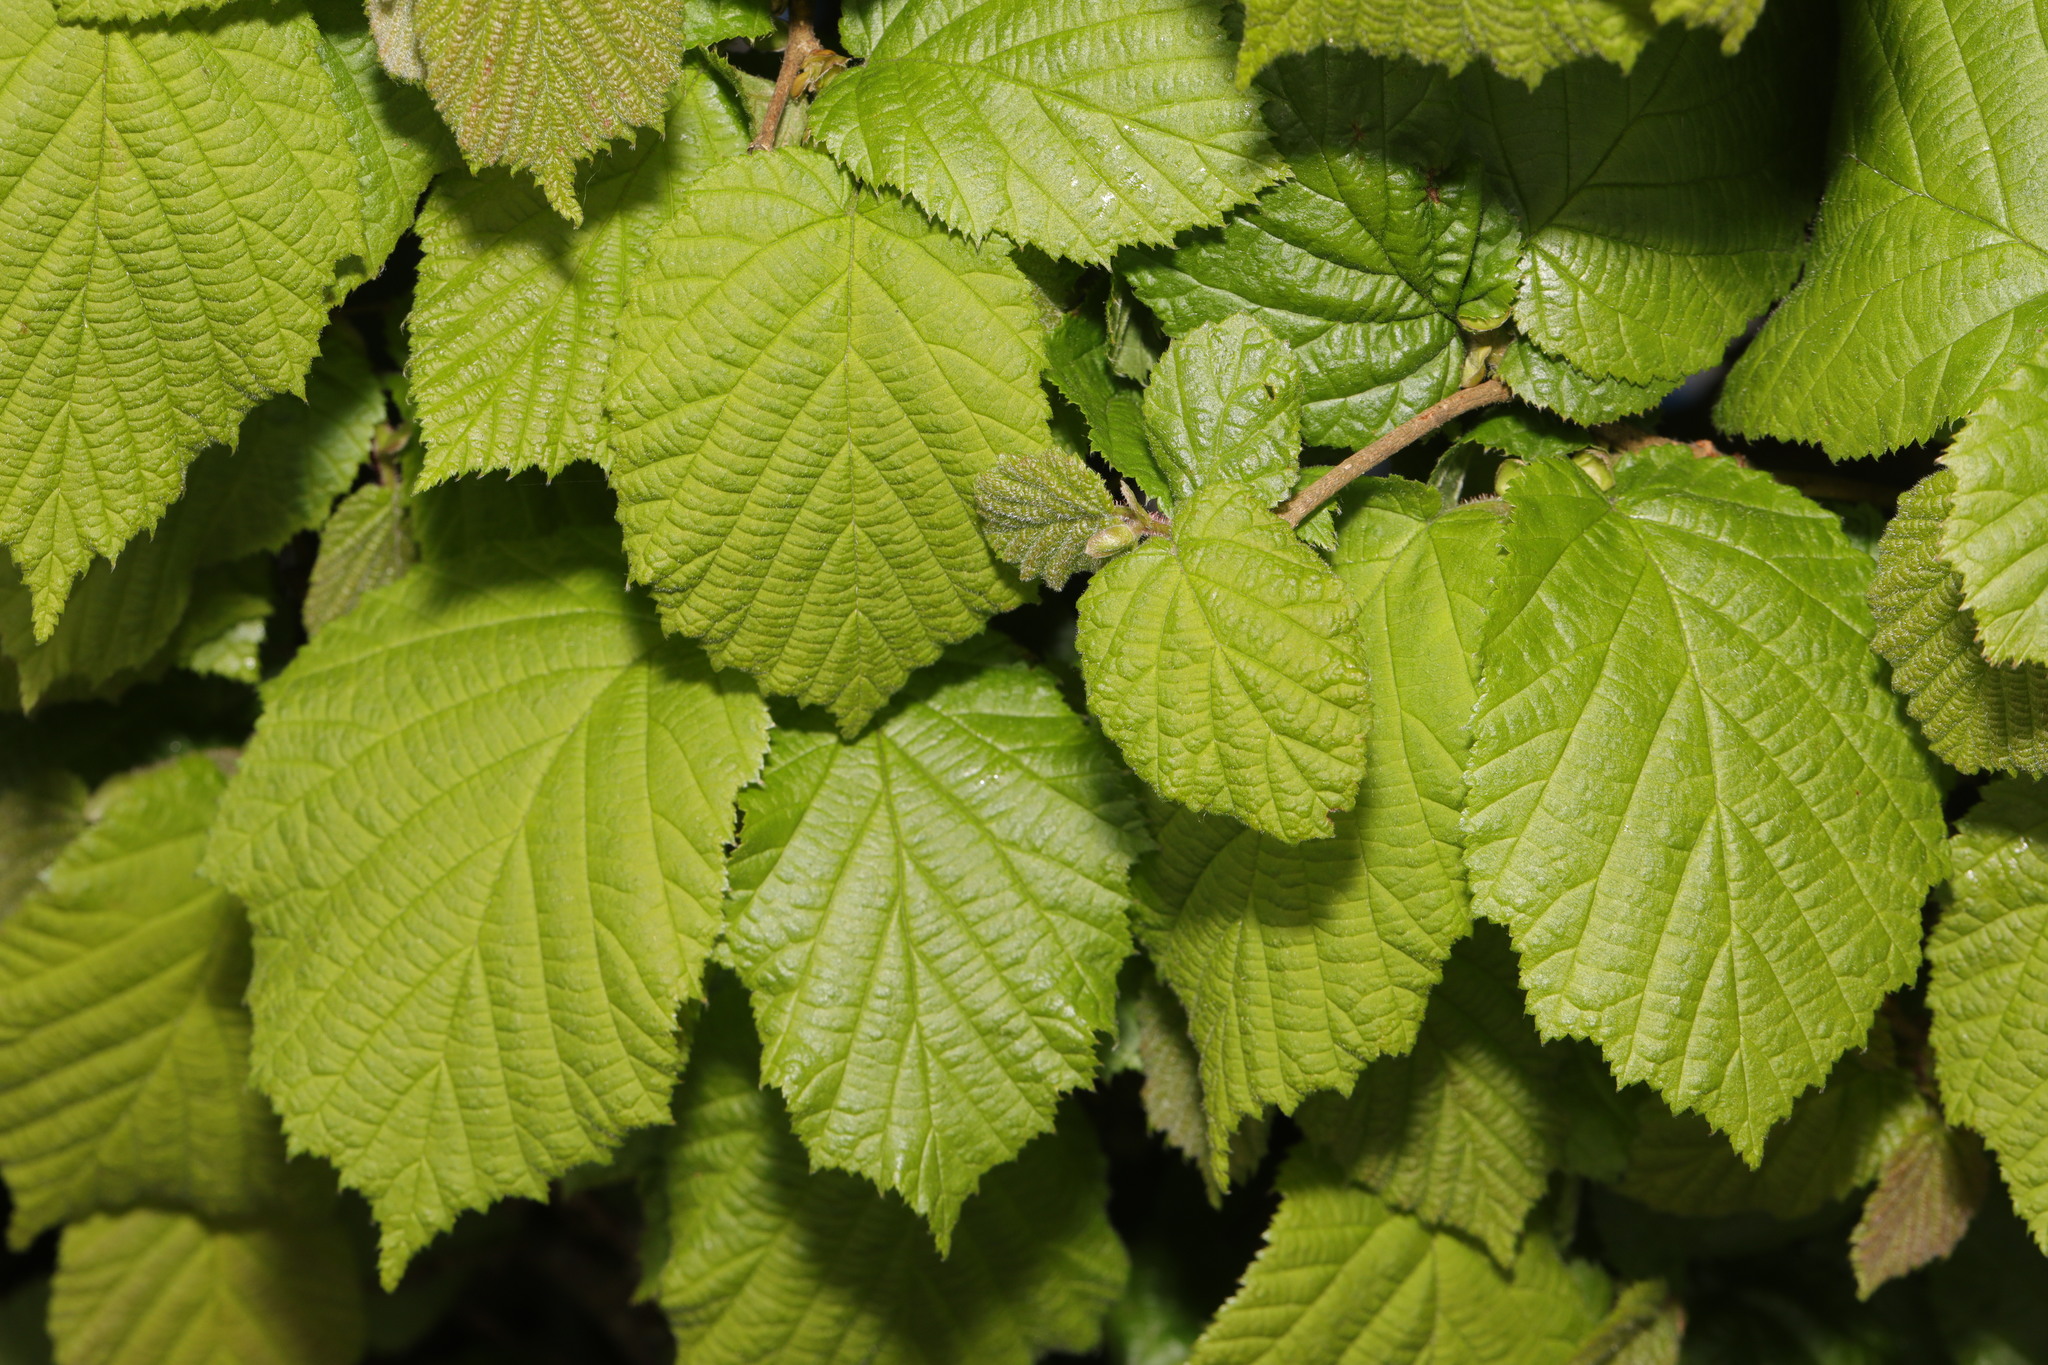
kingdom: Plantae
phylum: Tracheophyta
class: Magnoliopsida
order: Fagales
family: Betulaceae
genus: Corylus
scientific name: Corylus avellana
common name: European hazel
